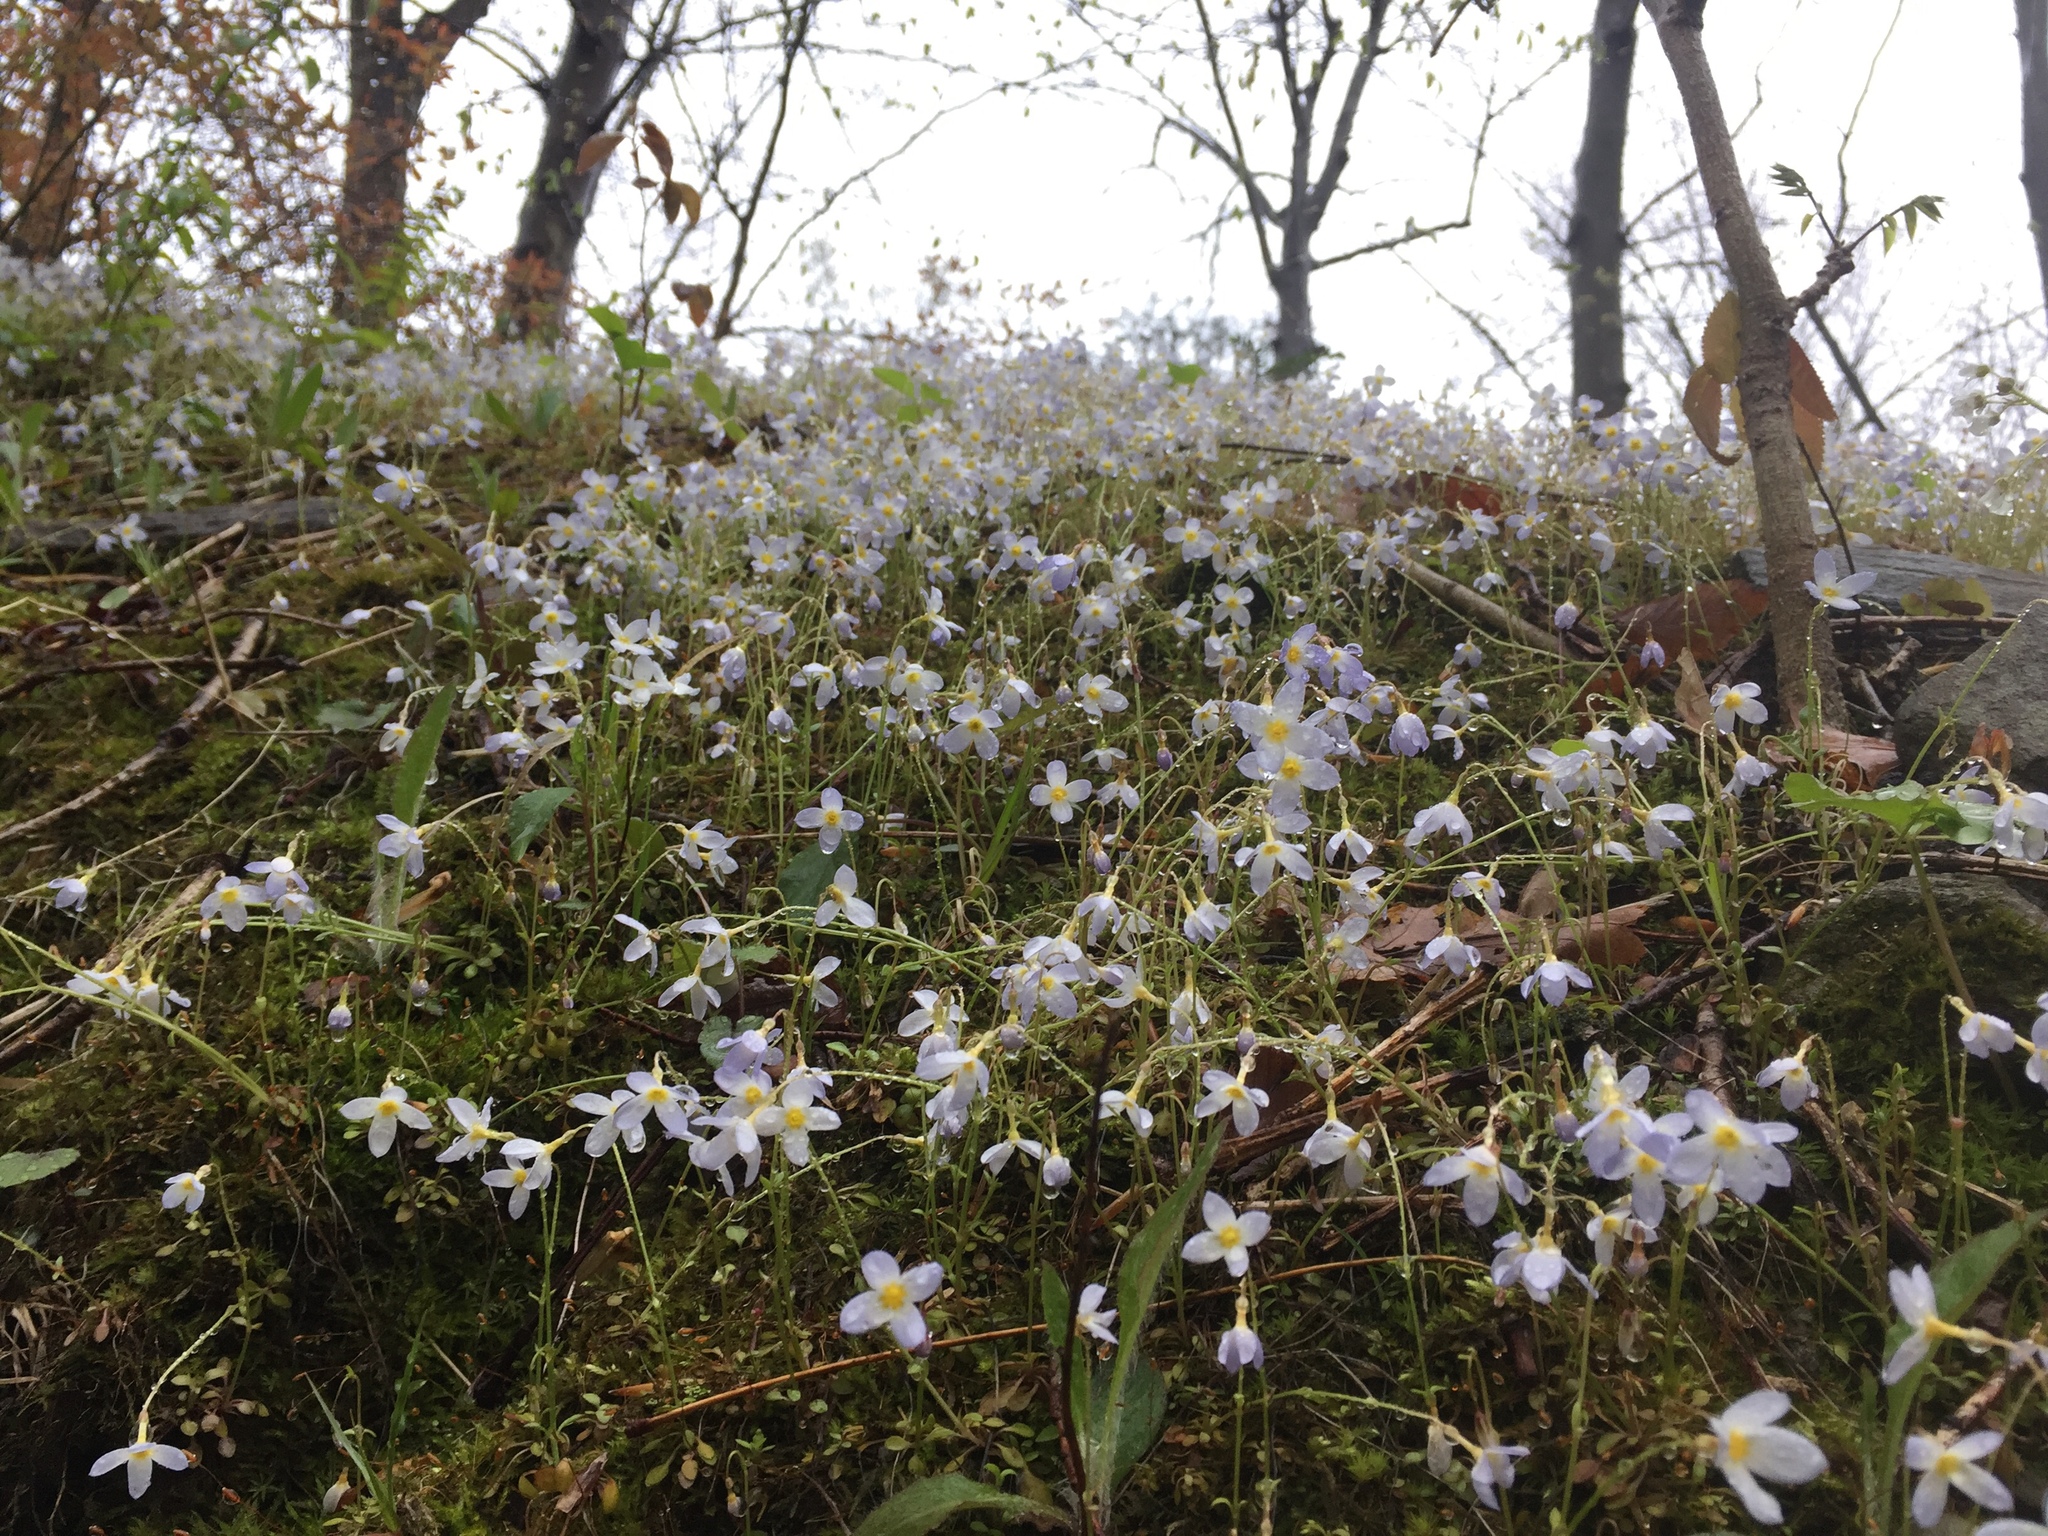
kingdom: Plantae
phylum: Tracheophyta
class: Magnoliopsida
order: Gentianales
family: Rubiaceae
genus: Houstonia
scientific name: Houstonia caerulea
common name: Bluets
